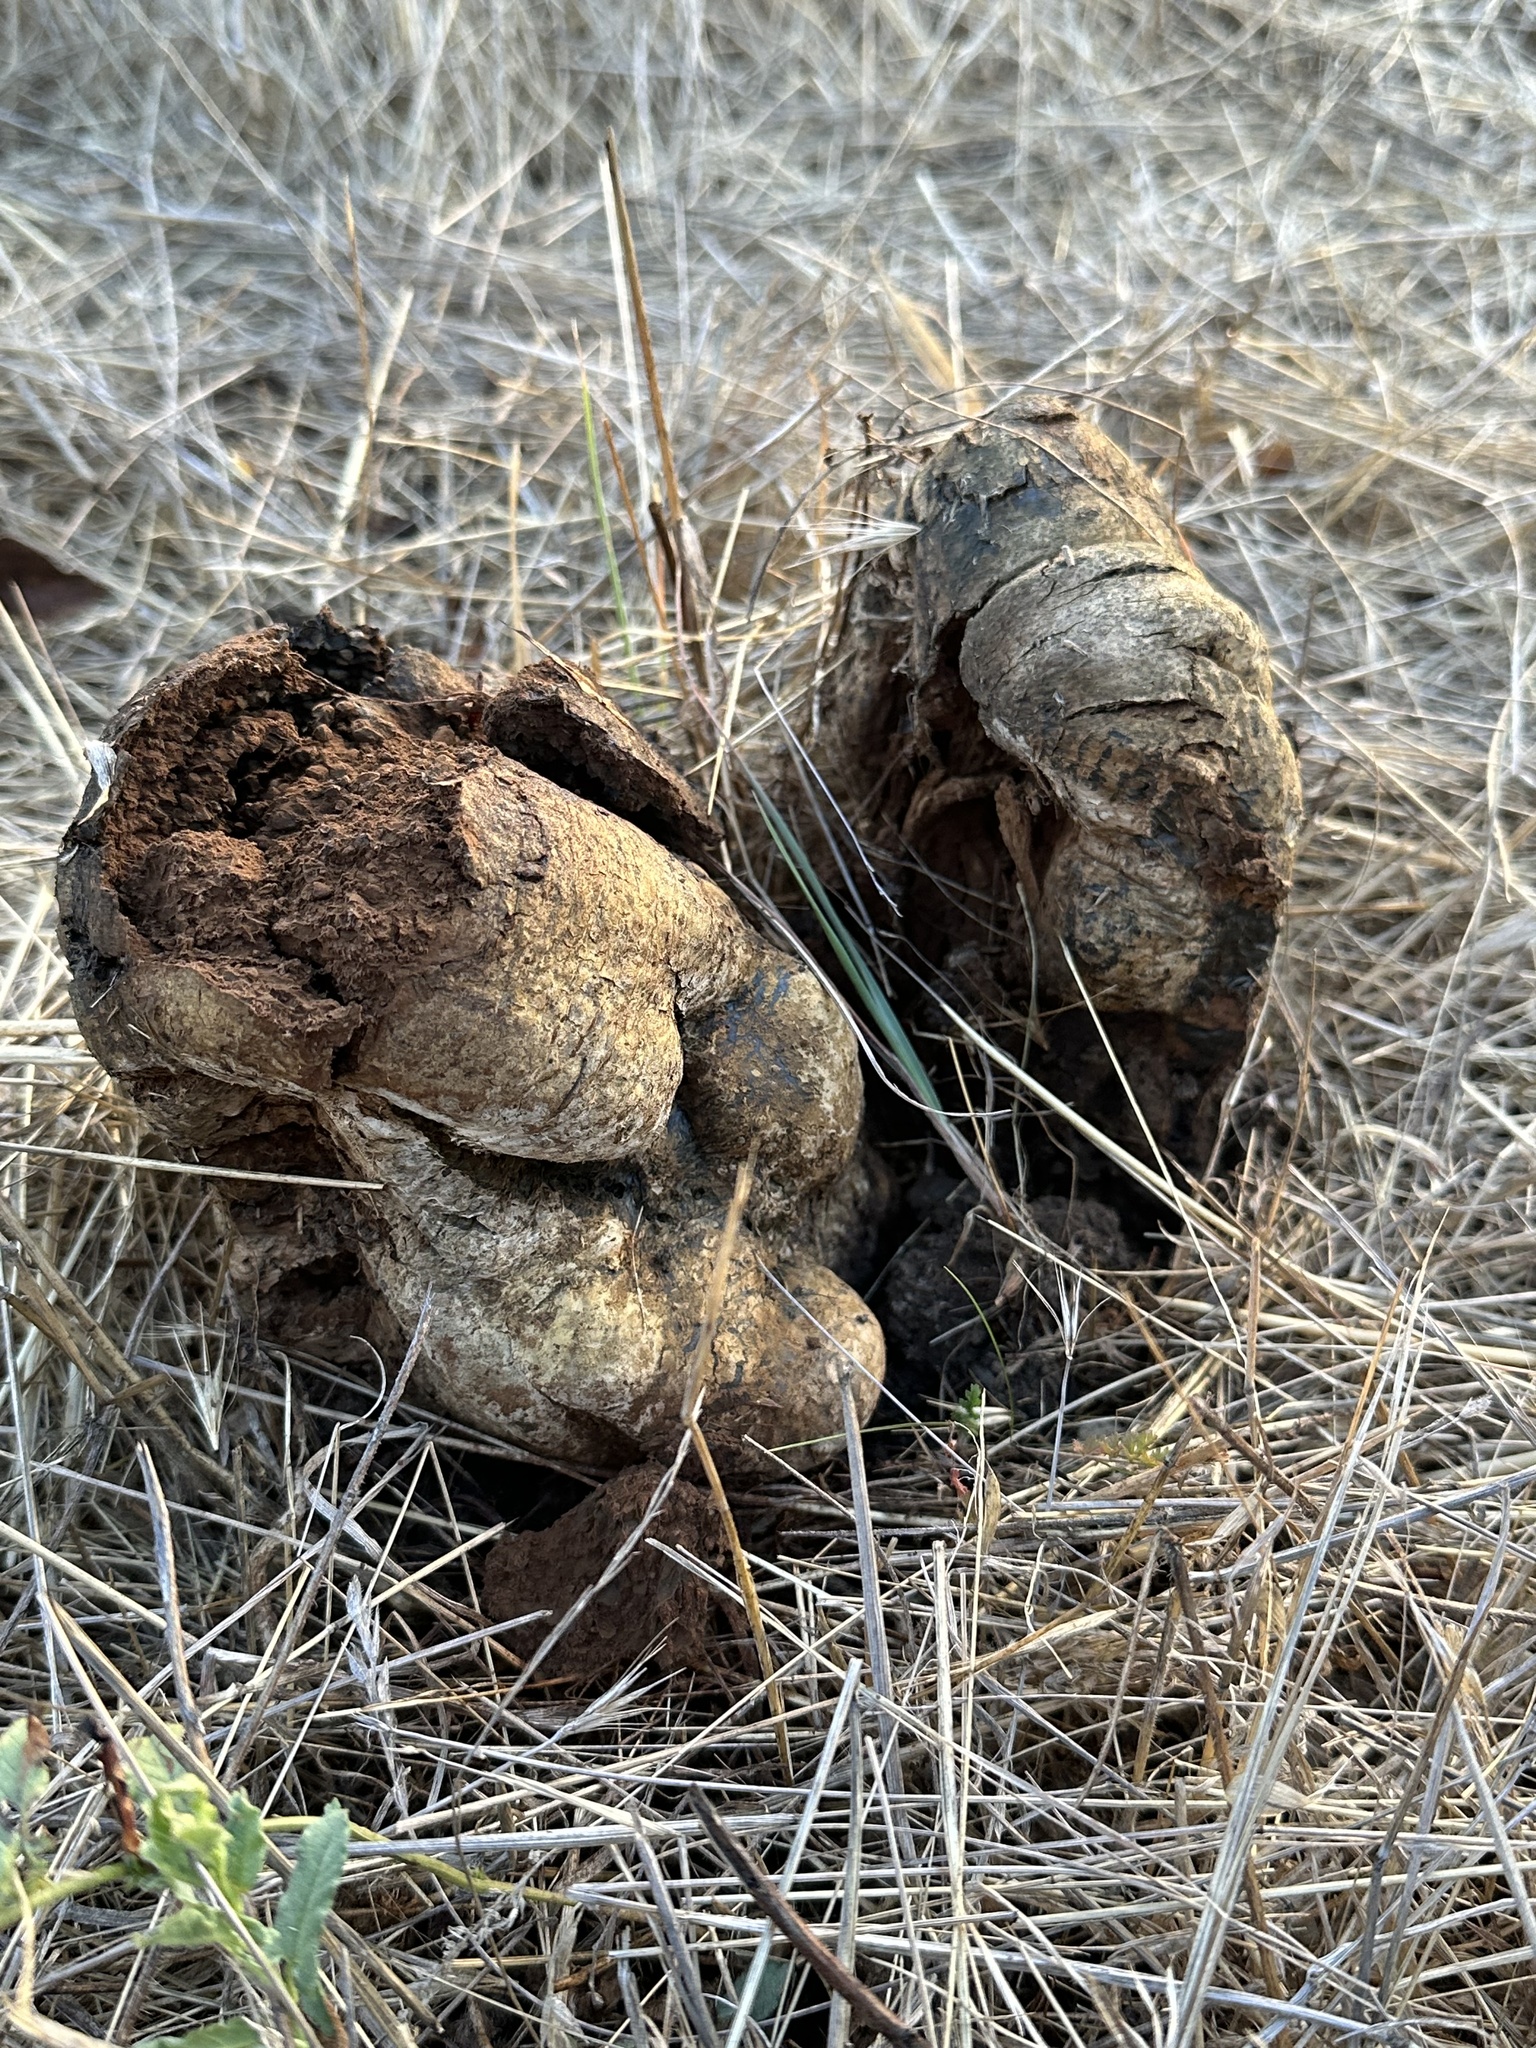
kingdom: Fungi
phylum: Basidiomycota
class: Agaricomycetes
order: Boletales
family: Sclerodermataceae
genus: Pisolithus
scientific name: Pisolithus tinctorius
